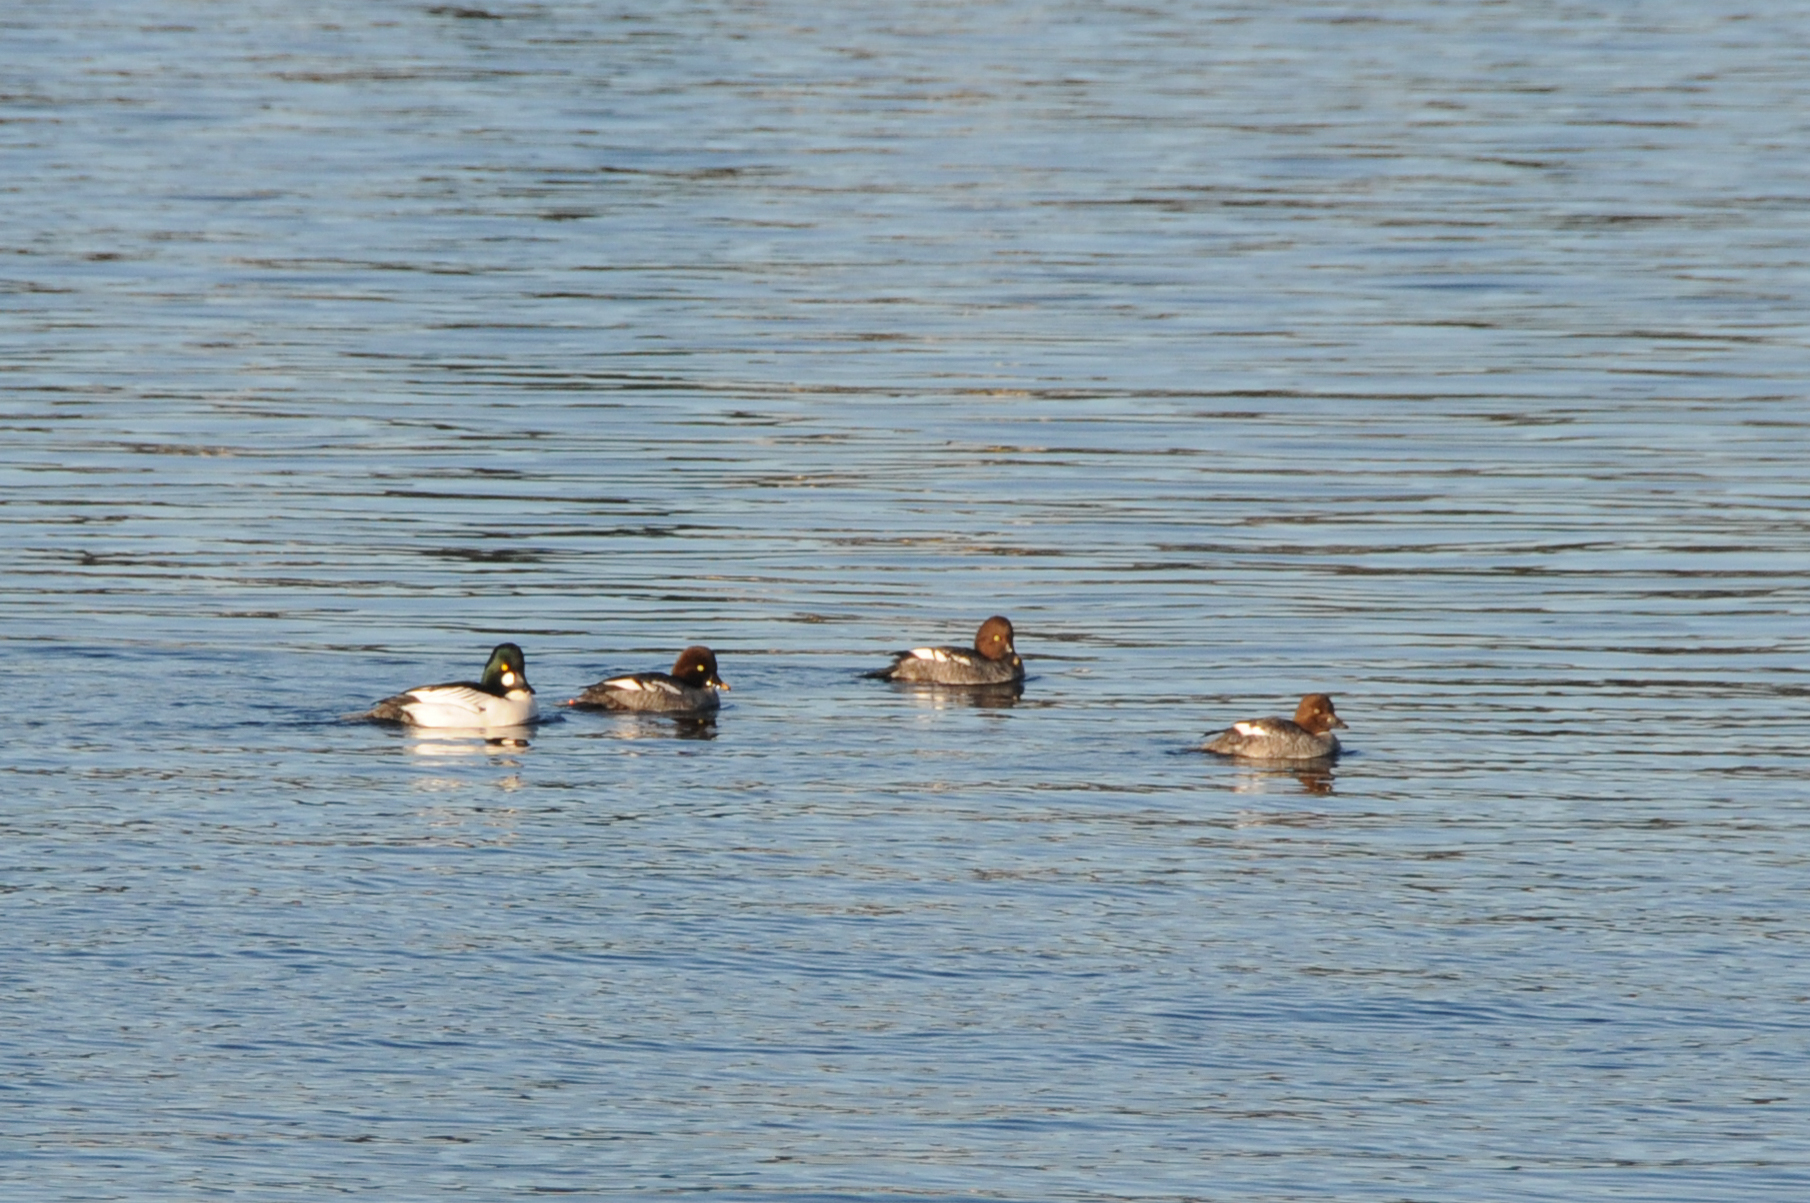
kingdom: Animalia
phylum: Chordata
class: Aves
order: Anseriformes
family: Anatidae
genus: Bucephala
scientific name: Bucephala clangula
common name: Common goldeneye
